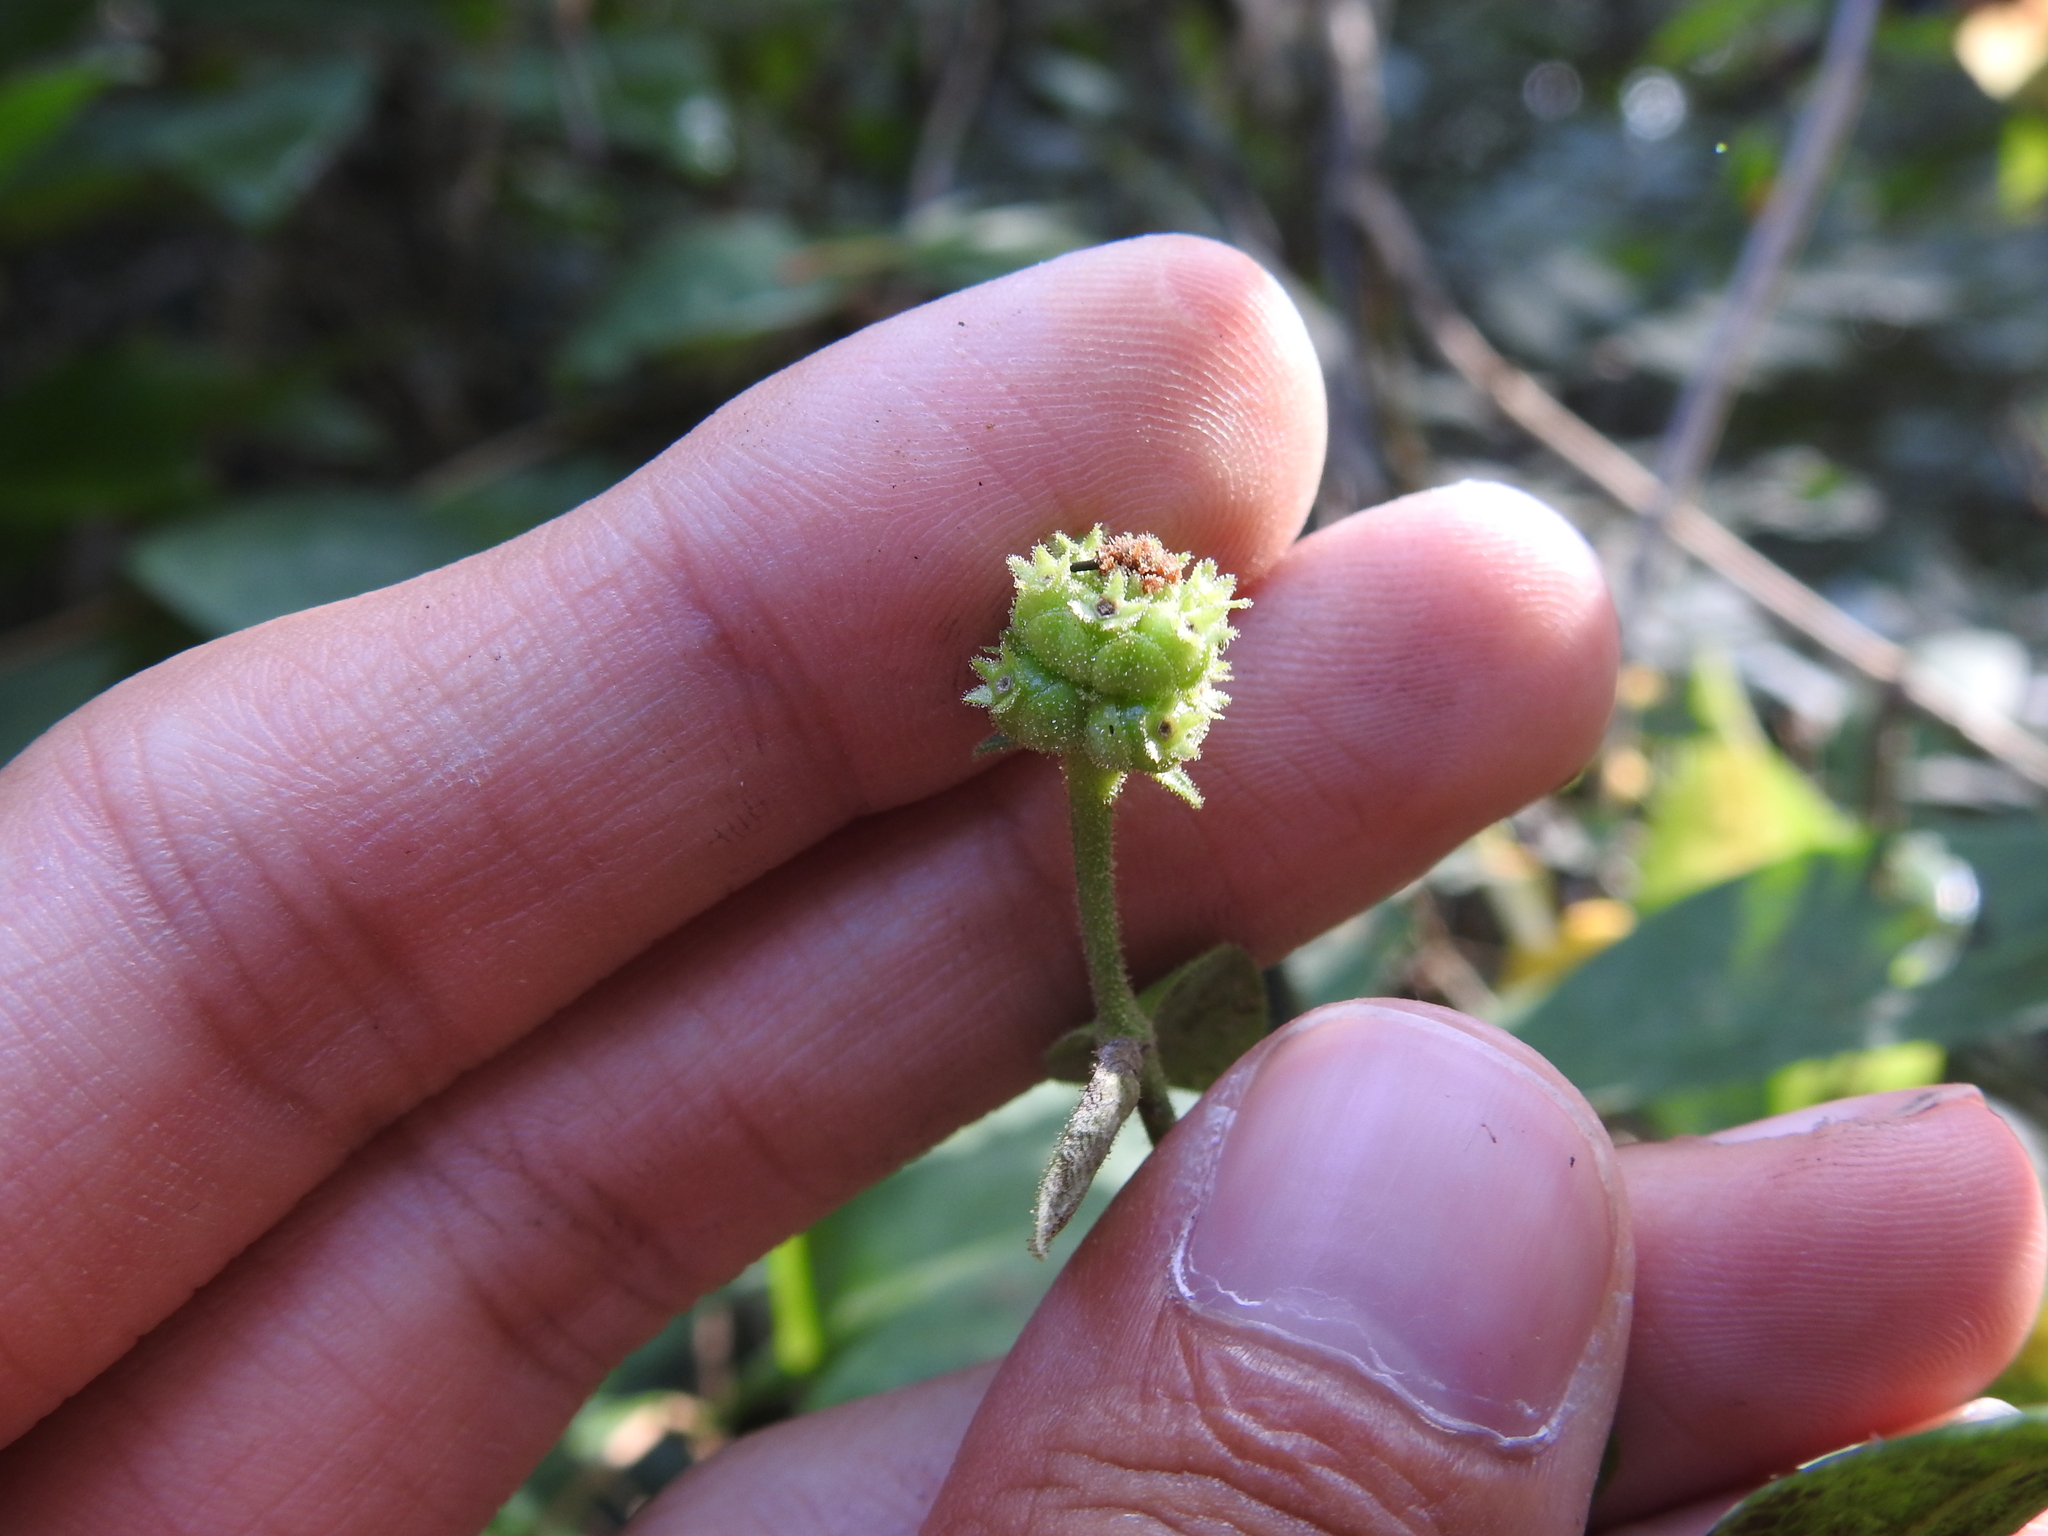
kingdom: Plantae
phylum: Tracheophyta
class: Magnoliopsida
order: Dipsacales
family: Caprifoliaceae
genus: Lonicera
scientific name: Lonicera periclymenum
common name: European honeysuckle
